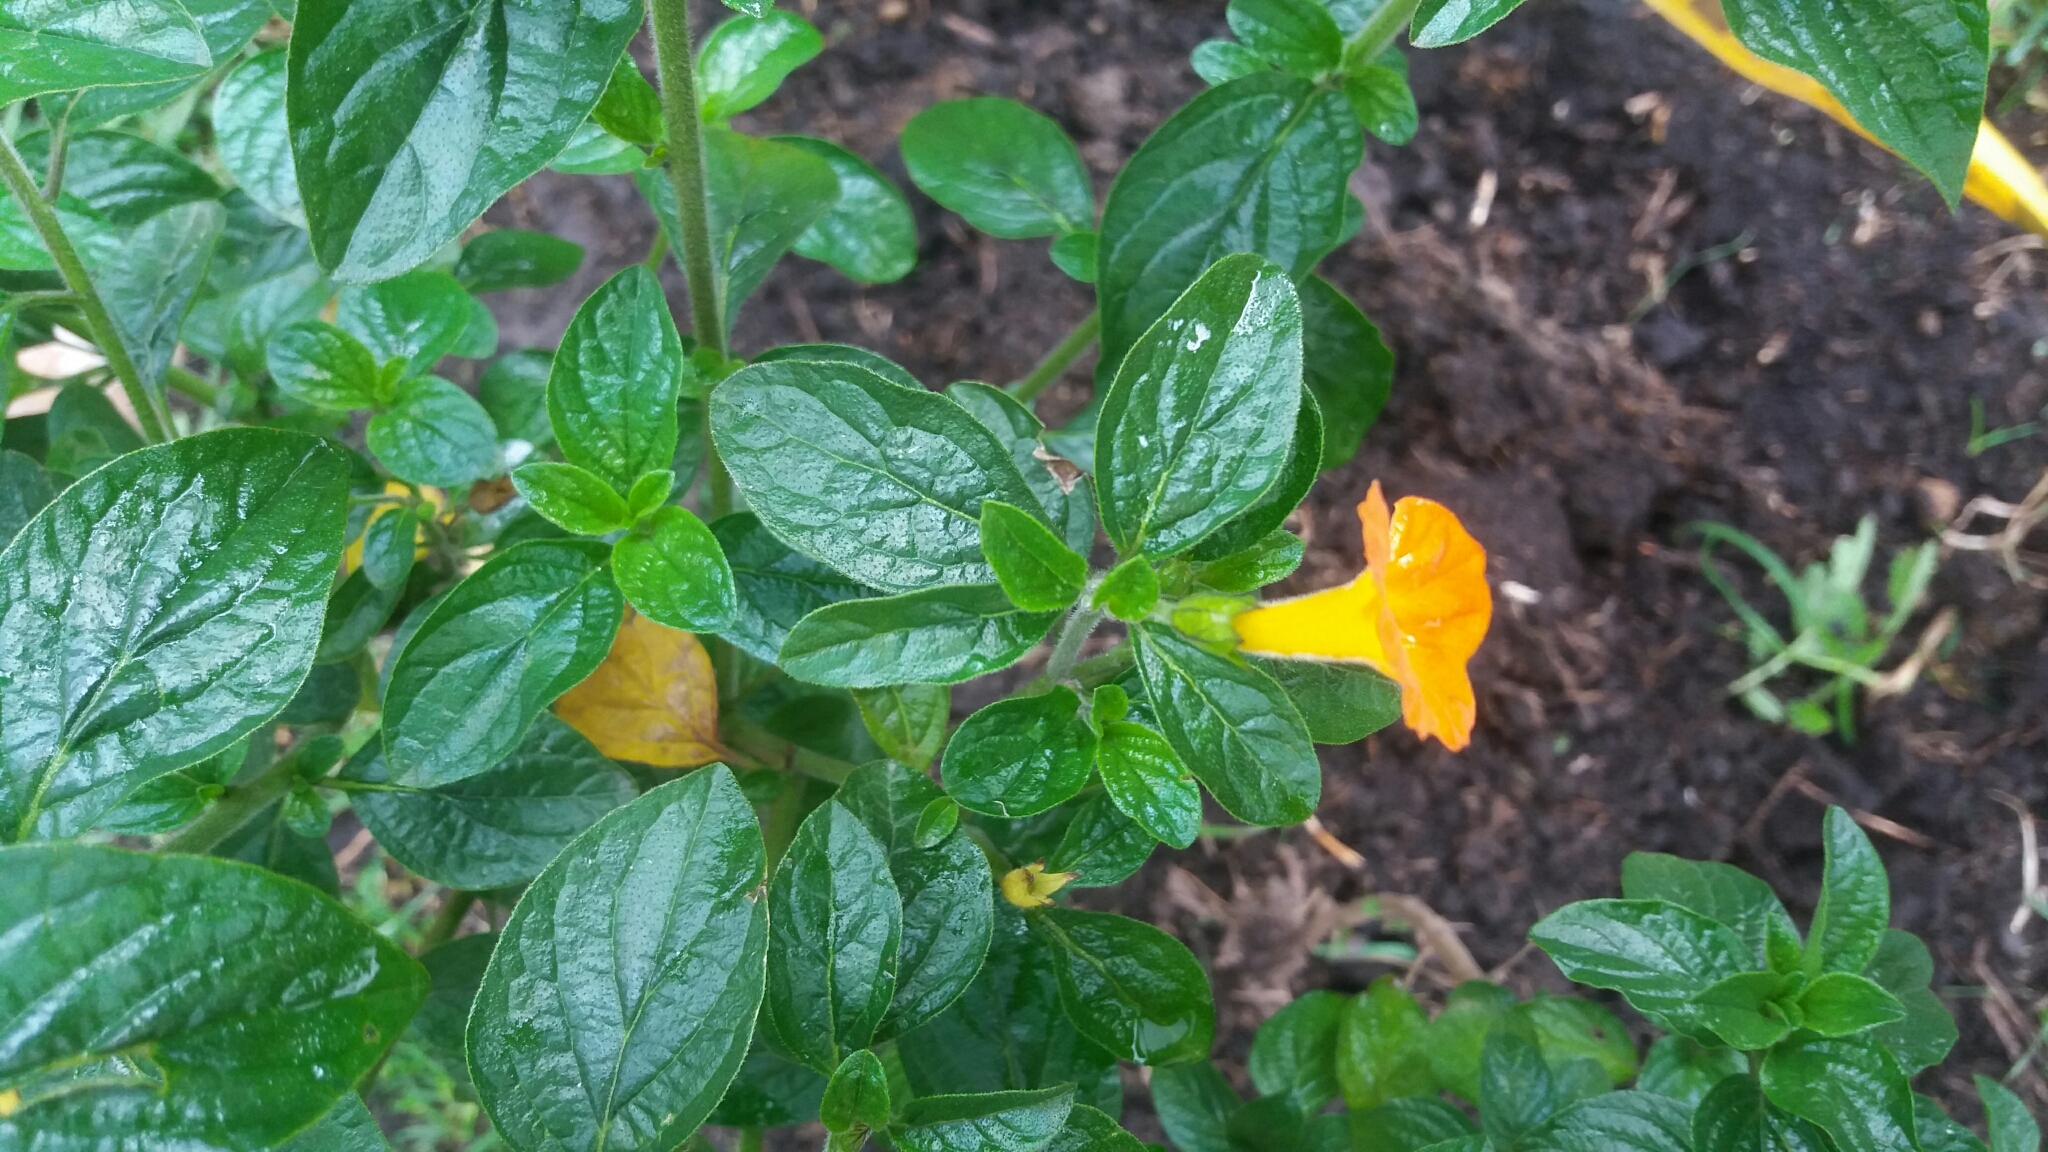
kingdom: Plantae
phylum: Tracheophyta
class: Magnoliopsida
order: Solanales
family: Solanaceae
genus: Streptosolen
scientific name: Streptosolen jamesonii
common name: Marmalade bush
